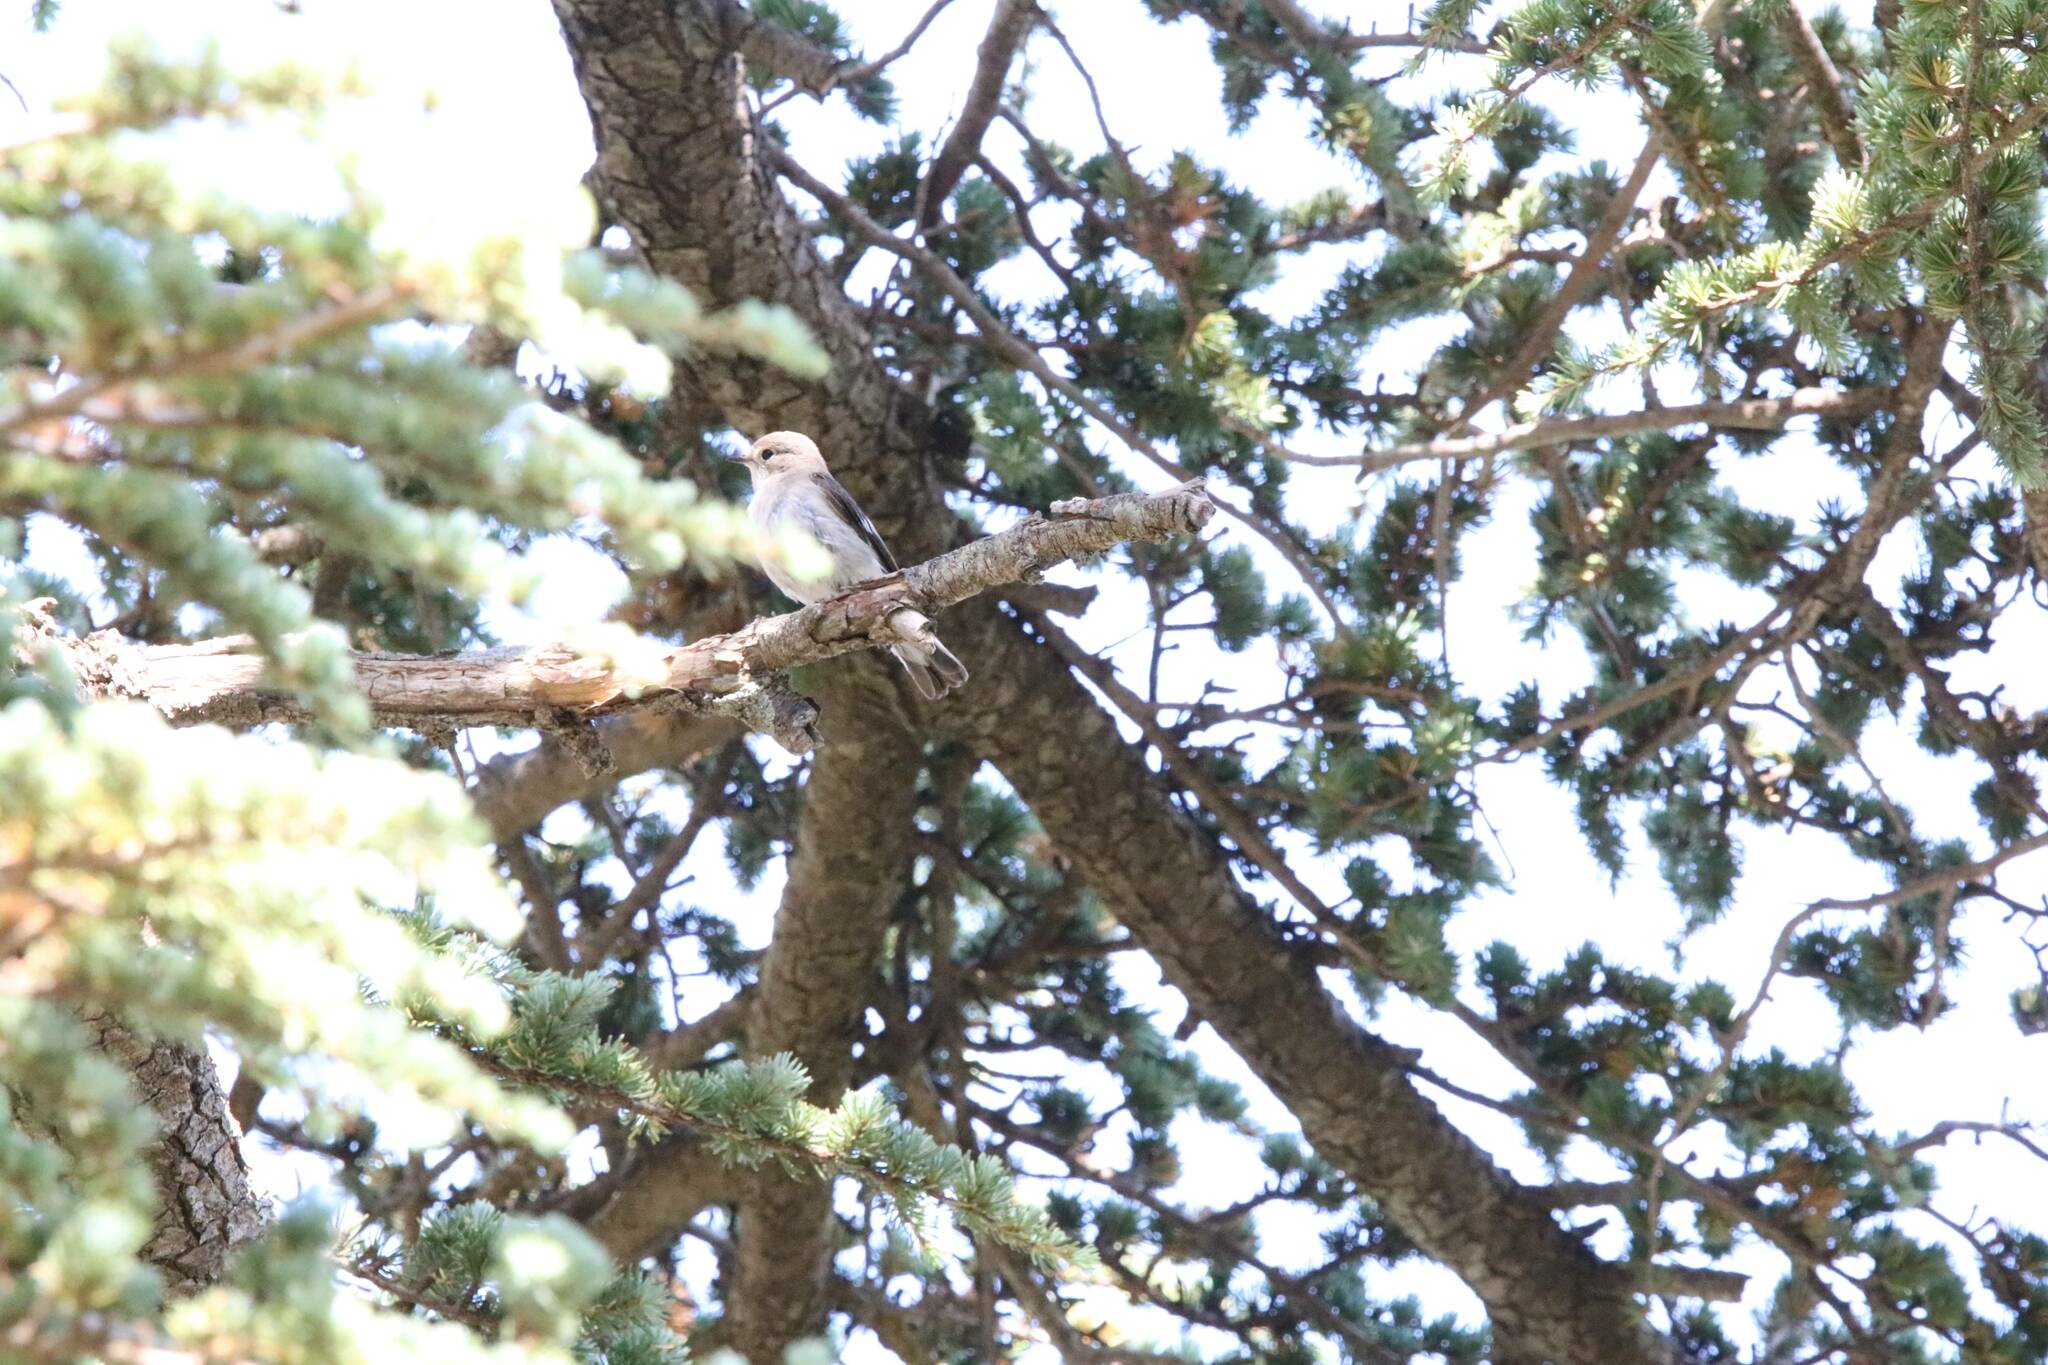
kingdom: Animalia
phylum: Chordata
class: Aves
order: Passeriformes
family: Muscicapidae
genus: Ficedula
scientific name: Ficedula speculigera
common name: Atlas pied flycatcher
